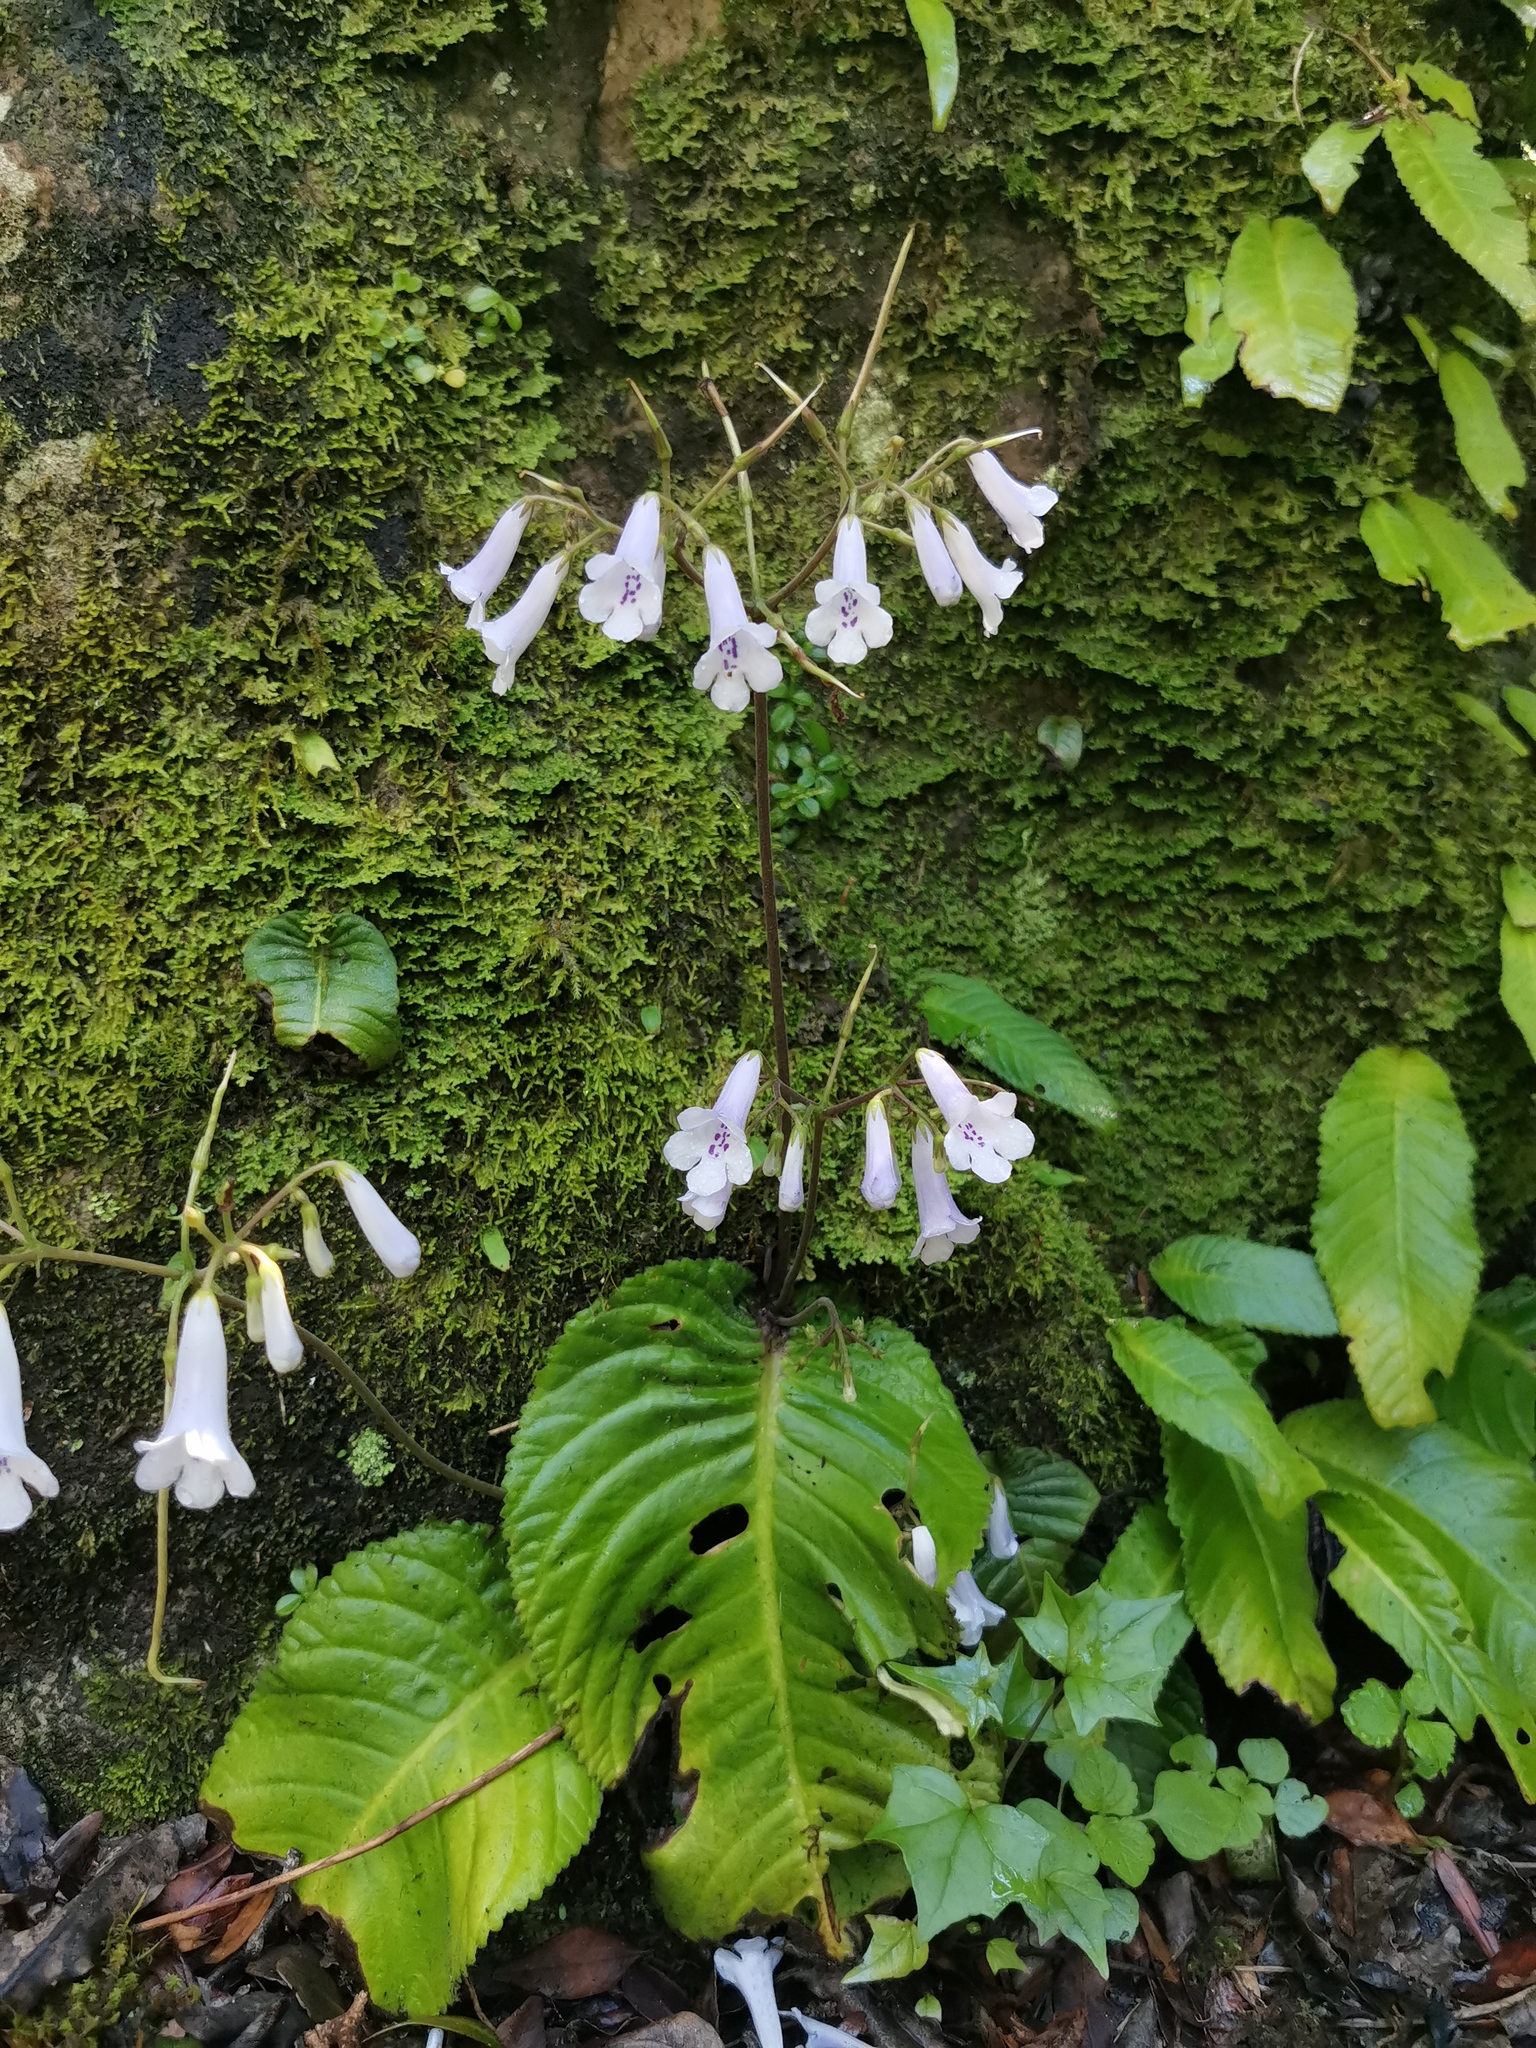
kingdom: Plantae
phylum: Tracheophyta
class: Magnoliopsida
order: Lamiales
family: Gesneriaceae
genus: Streptocarpus
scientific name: Streptocarpus wilmsii
